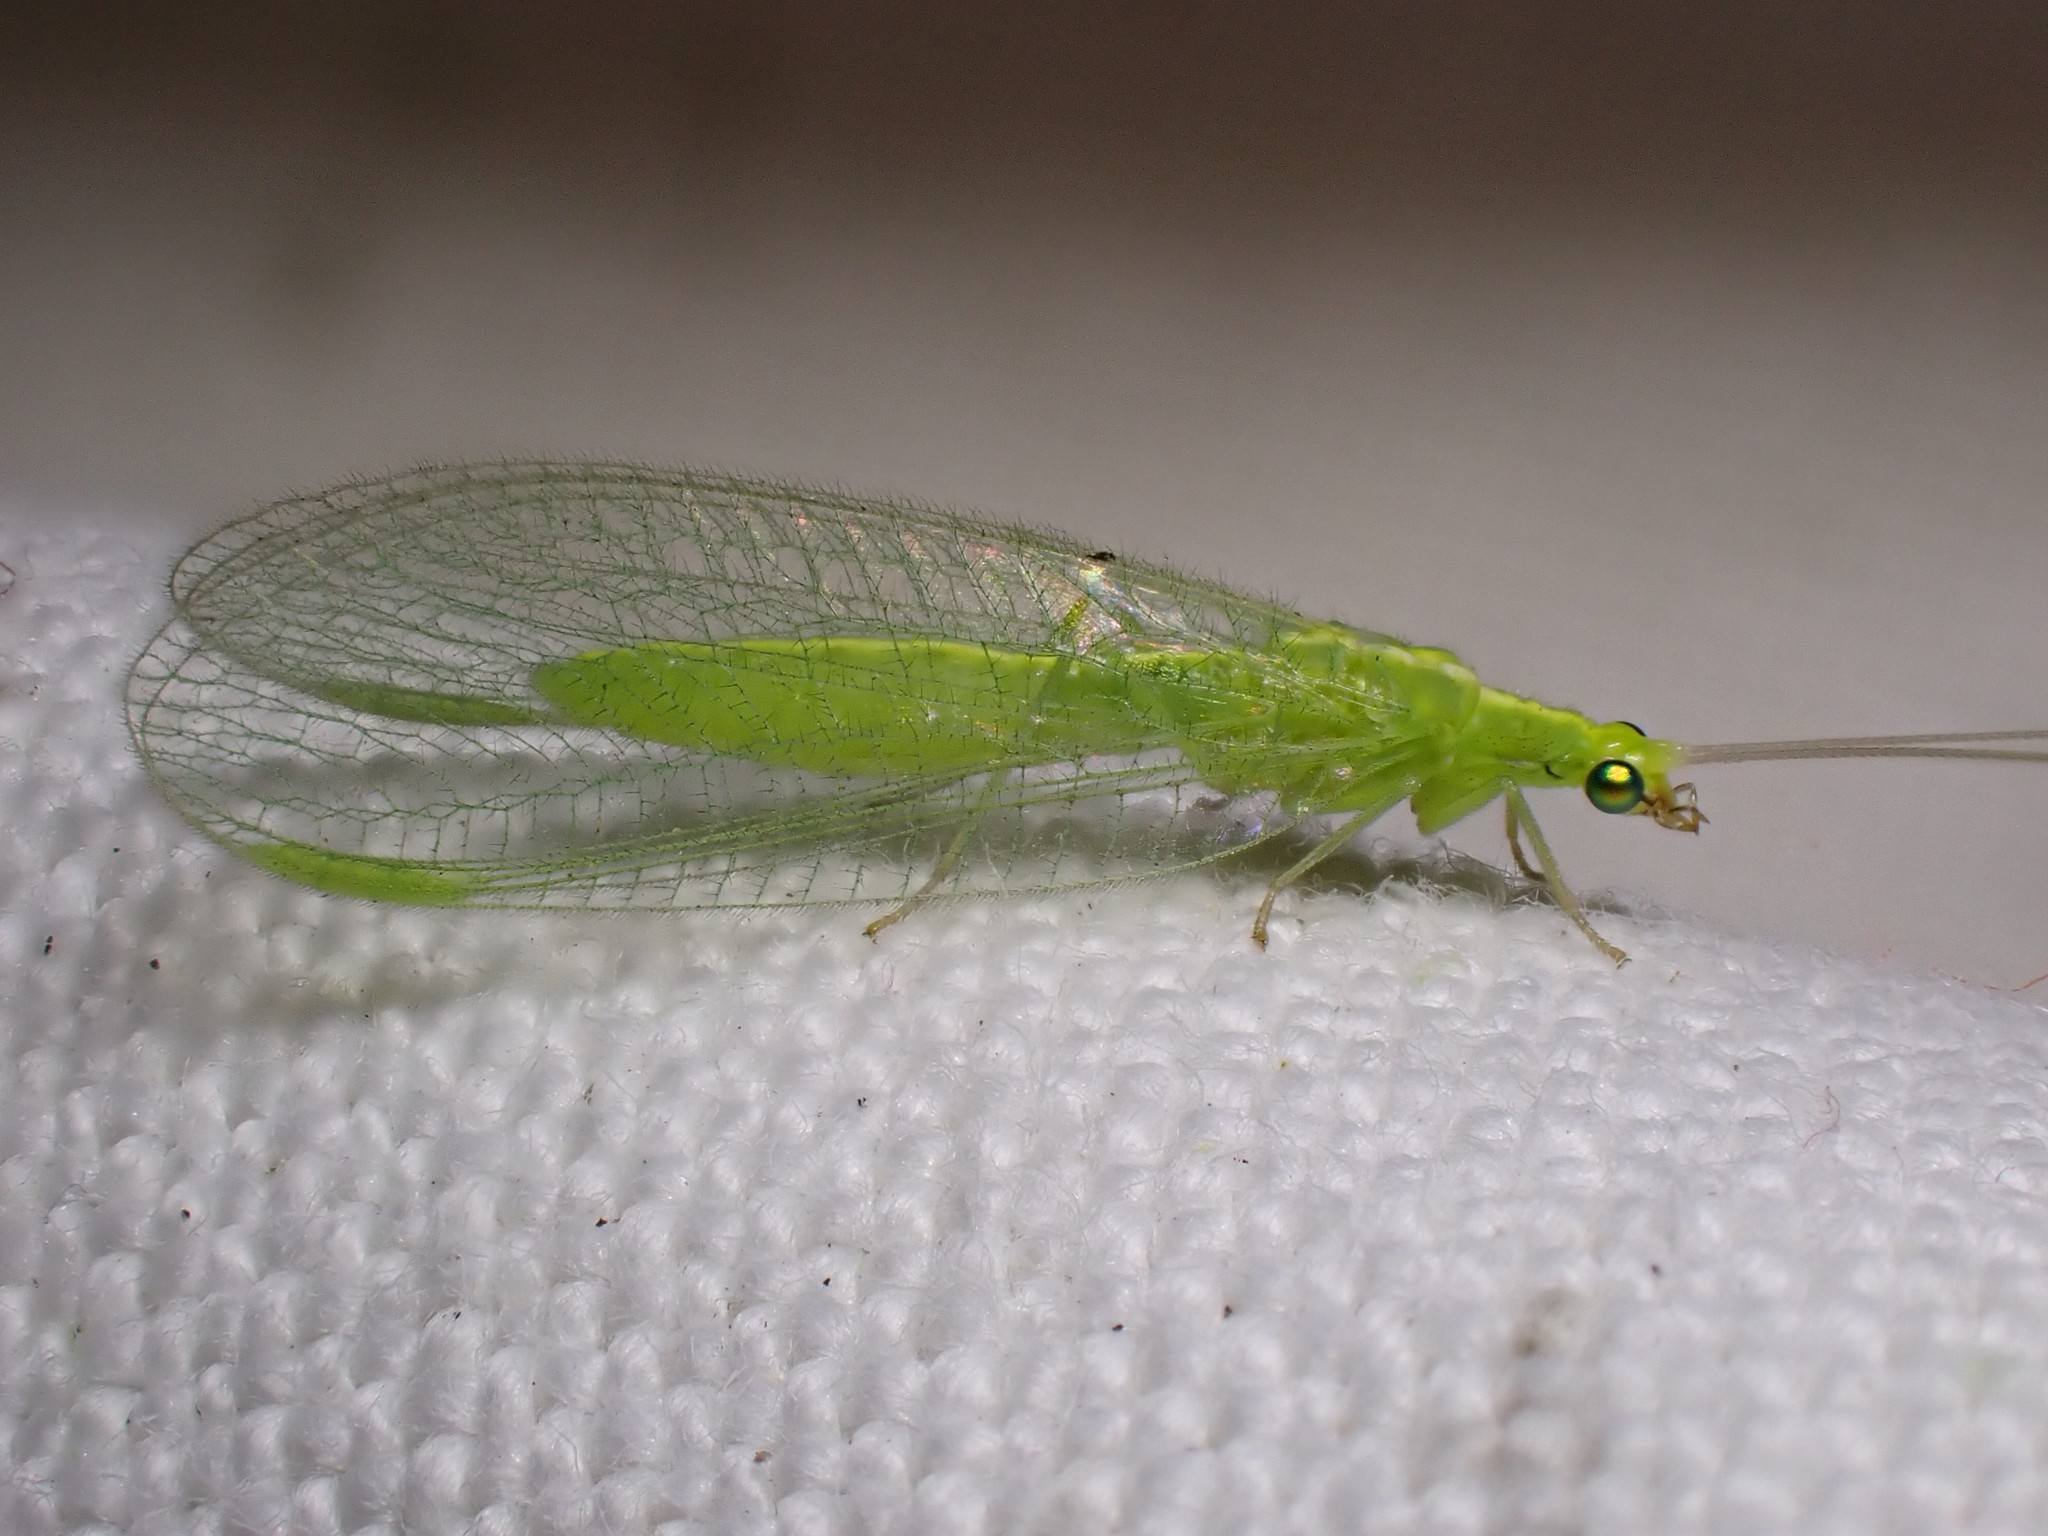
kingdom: Animalia
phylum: Arthropoda
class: Insecta
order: Neuroptera
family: Chrysopidae
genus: Chrysoperla
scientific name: Chrysoperla
